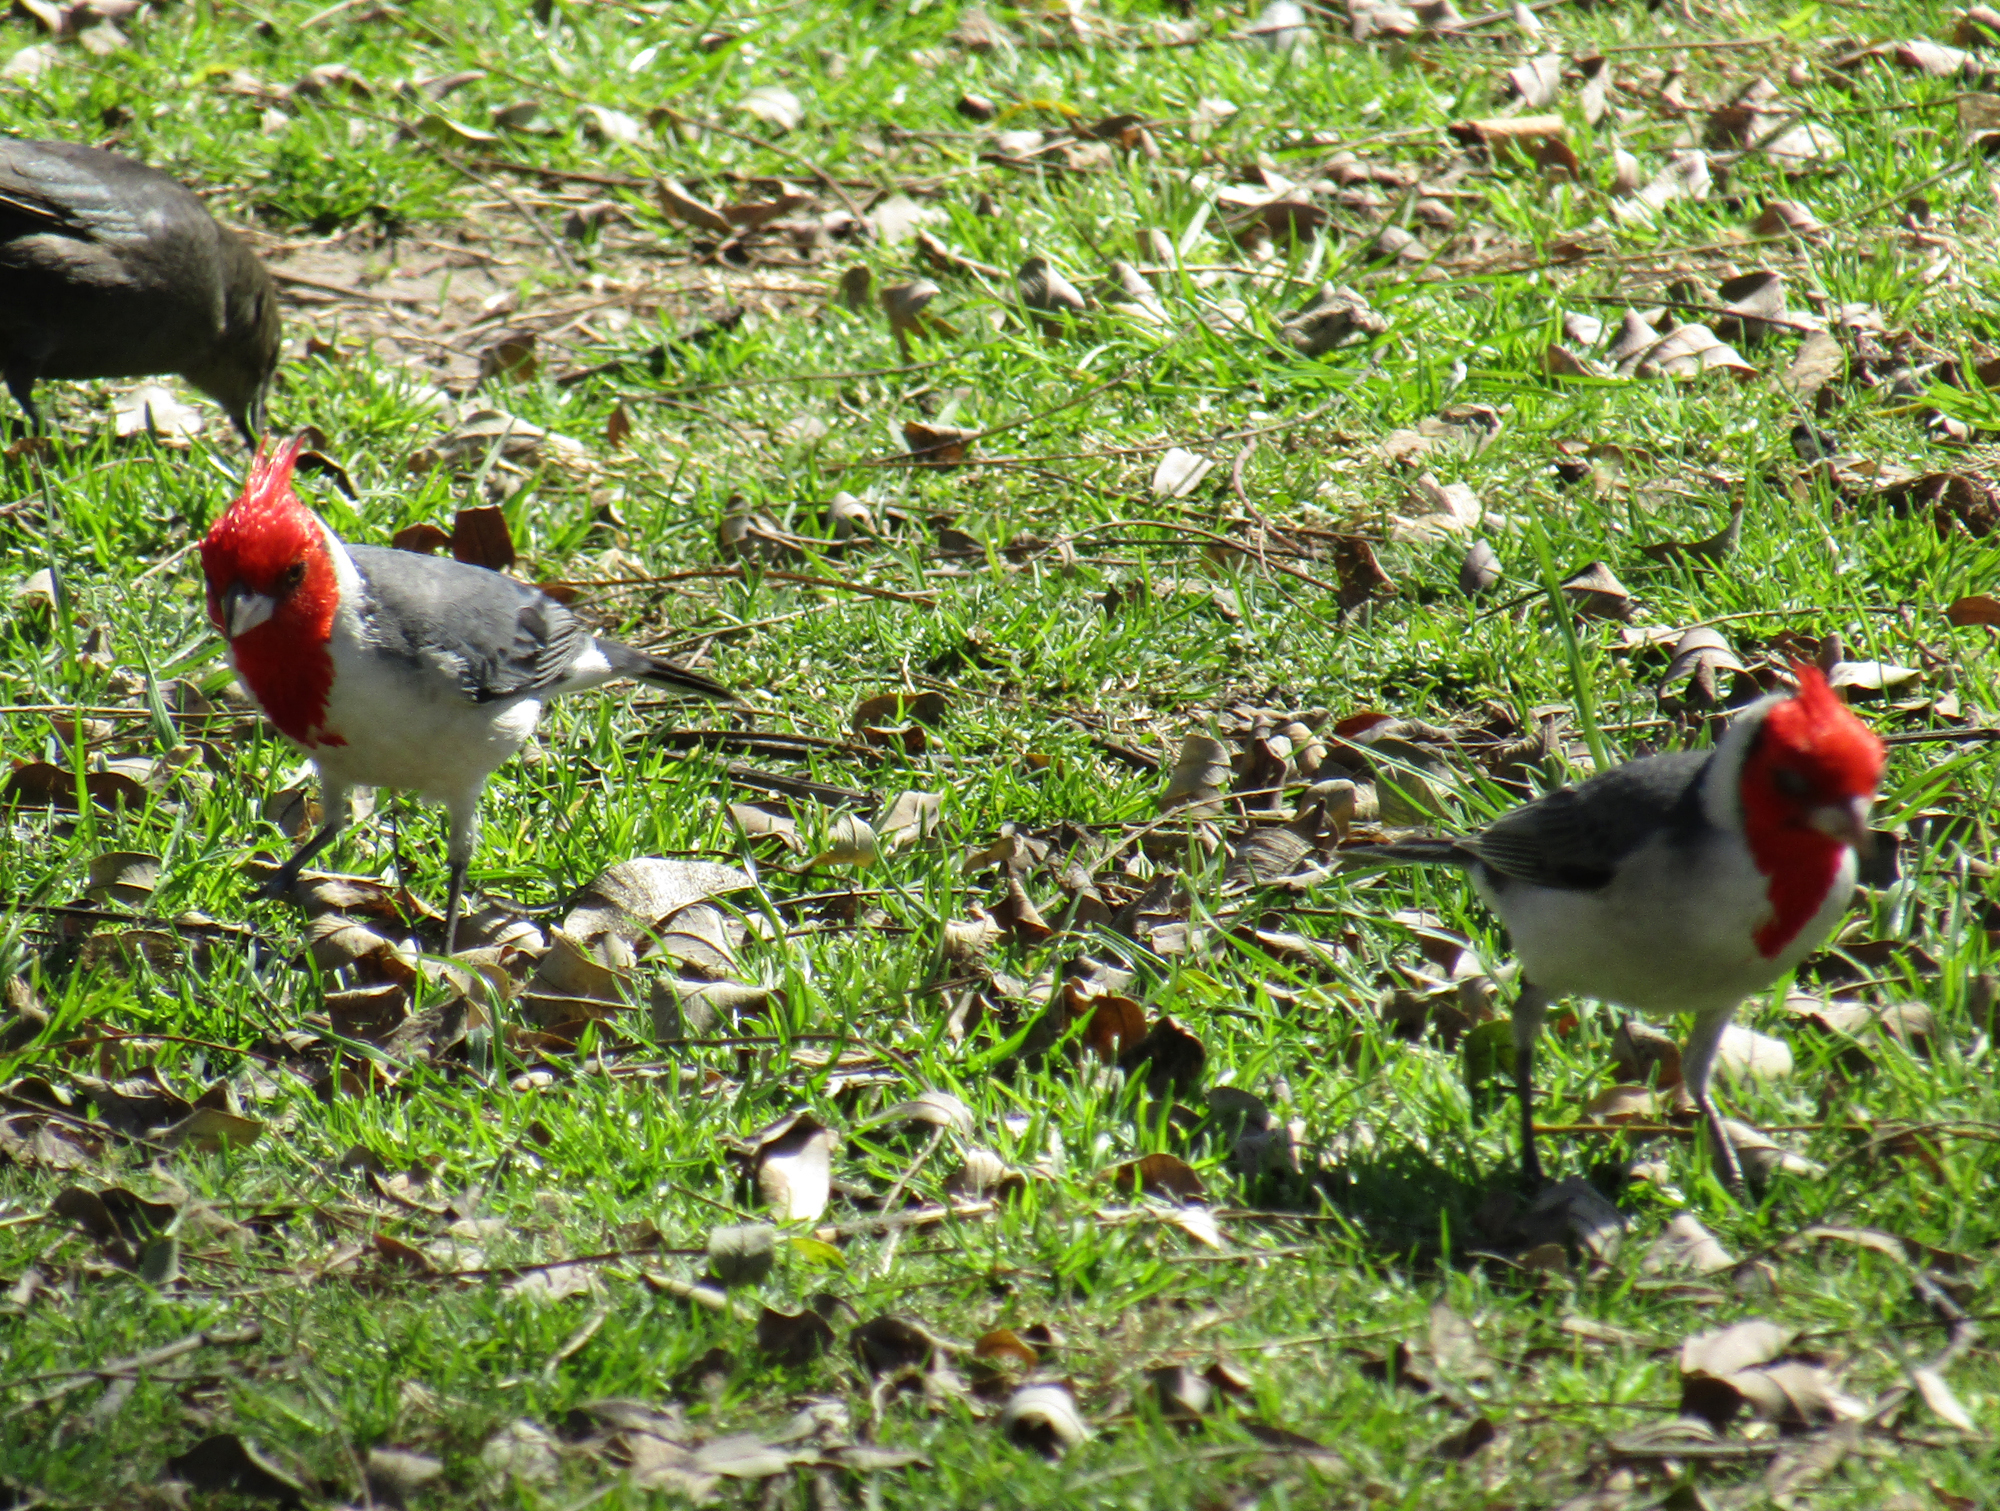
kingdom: Animalia
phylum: Chordata
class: Aves
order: Passeriformes
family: Thraupidae
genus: Paroaria
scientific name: Paroaria coronata
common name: Red-crested cardinal
